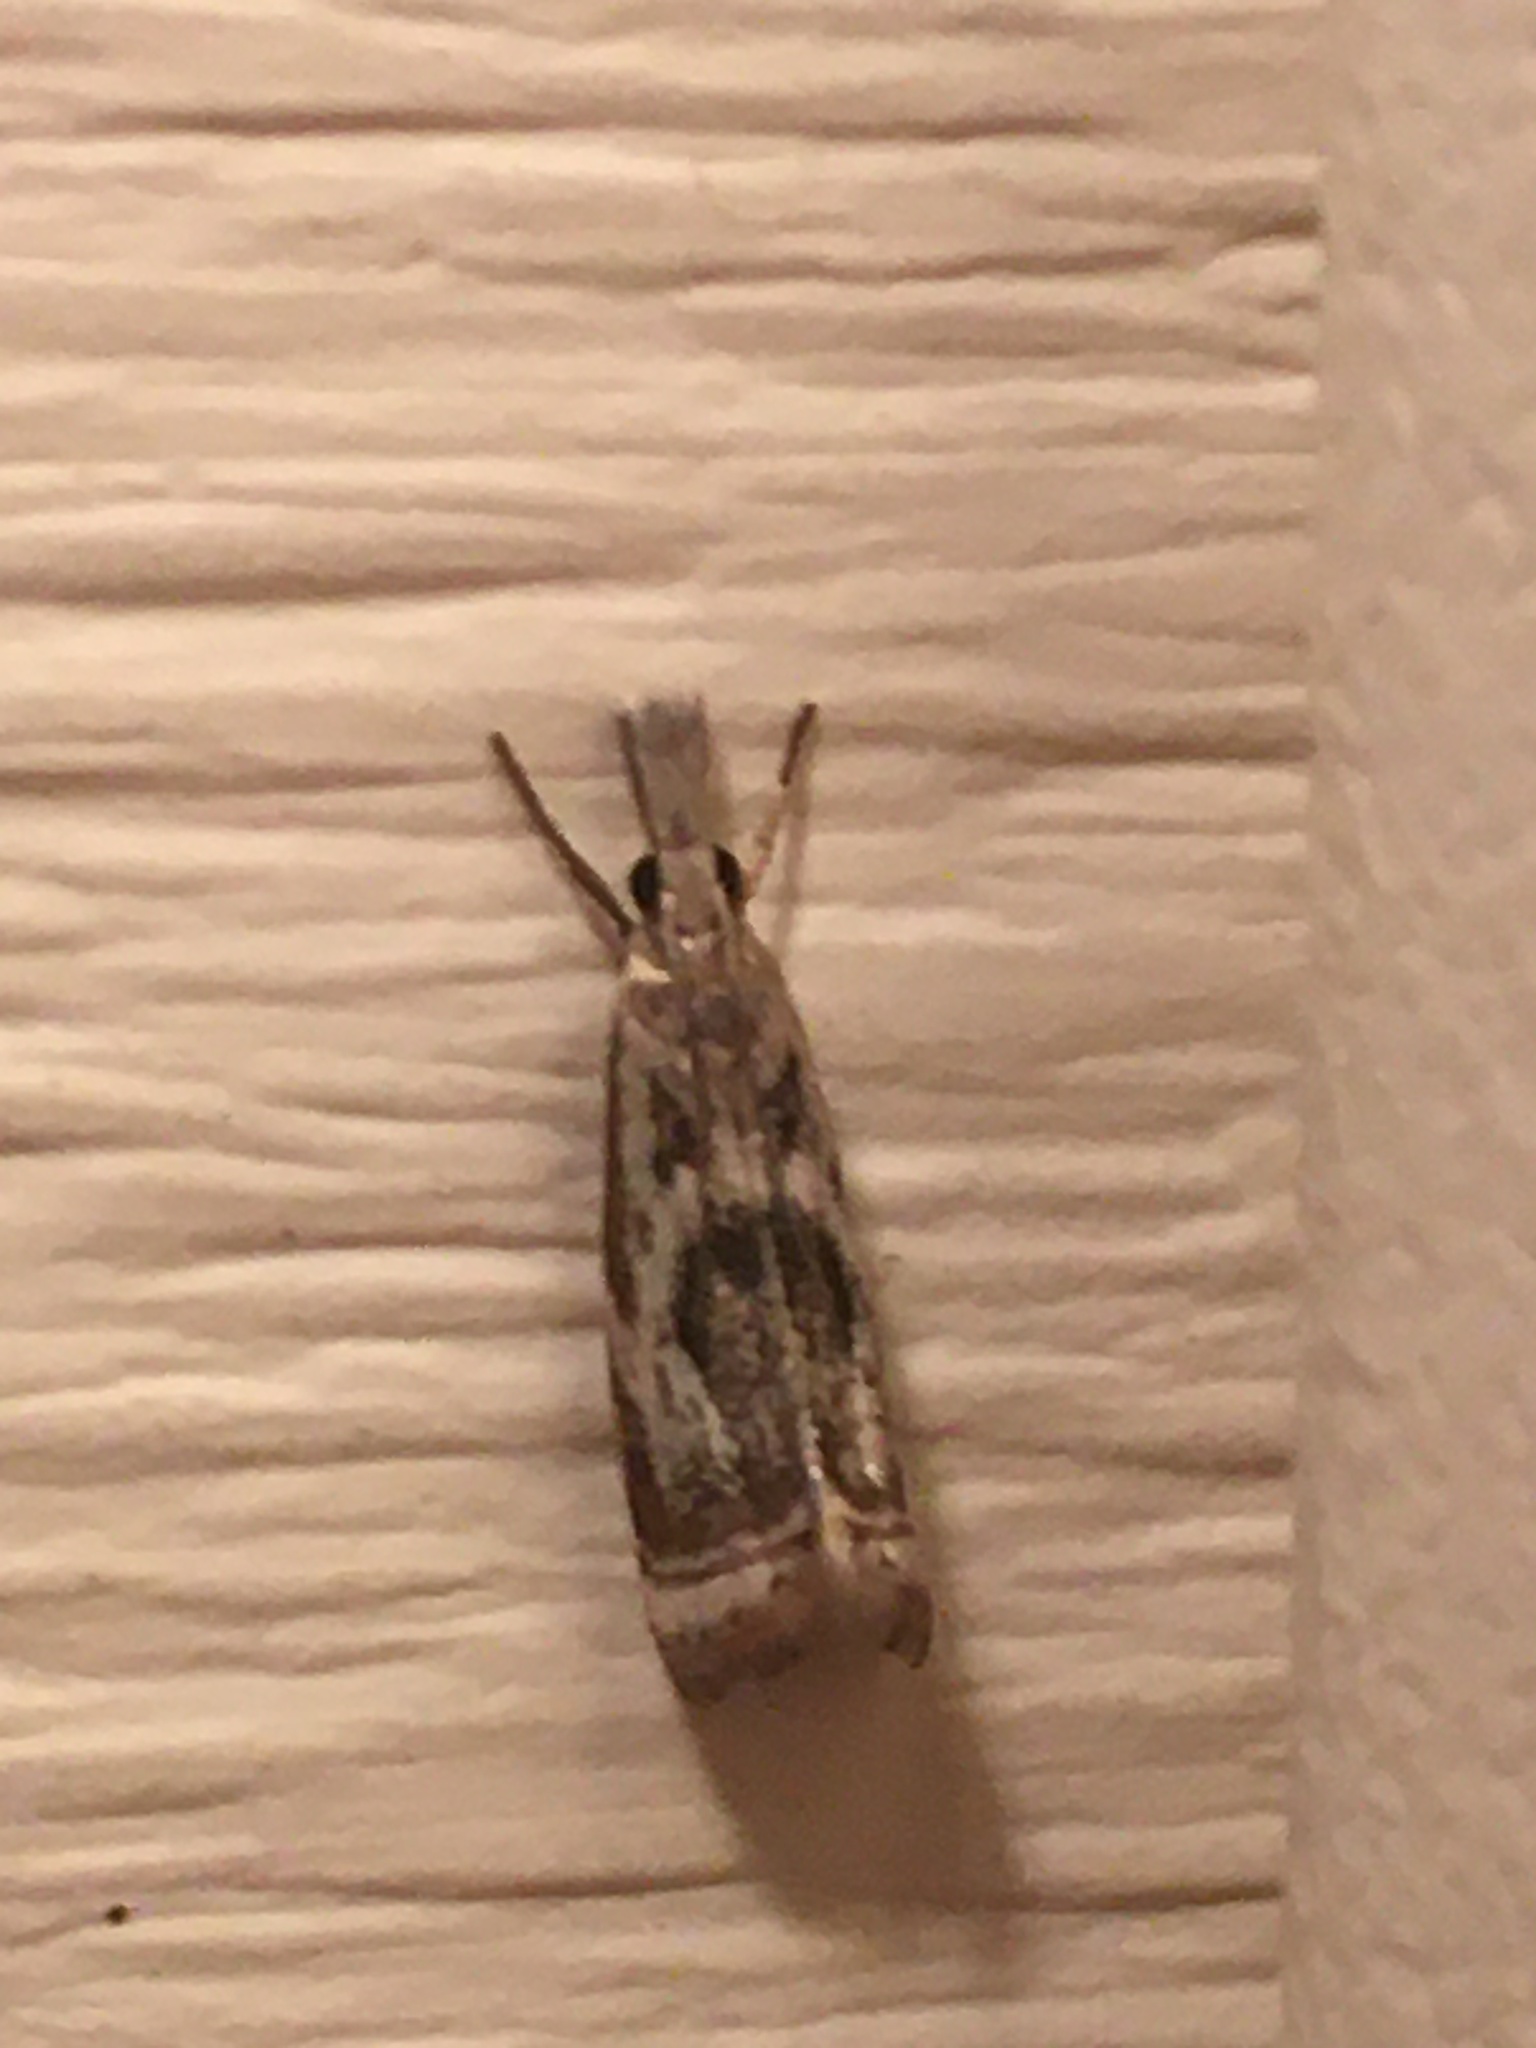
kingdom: Animalia
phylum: Arthropoda
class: Insecta
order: Lepidoptera
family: Crambidae
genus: Microcrambus
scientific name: Microcrambus elegans
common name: Elegant grass-veneer
